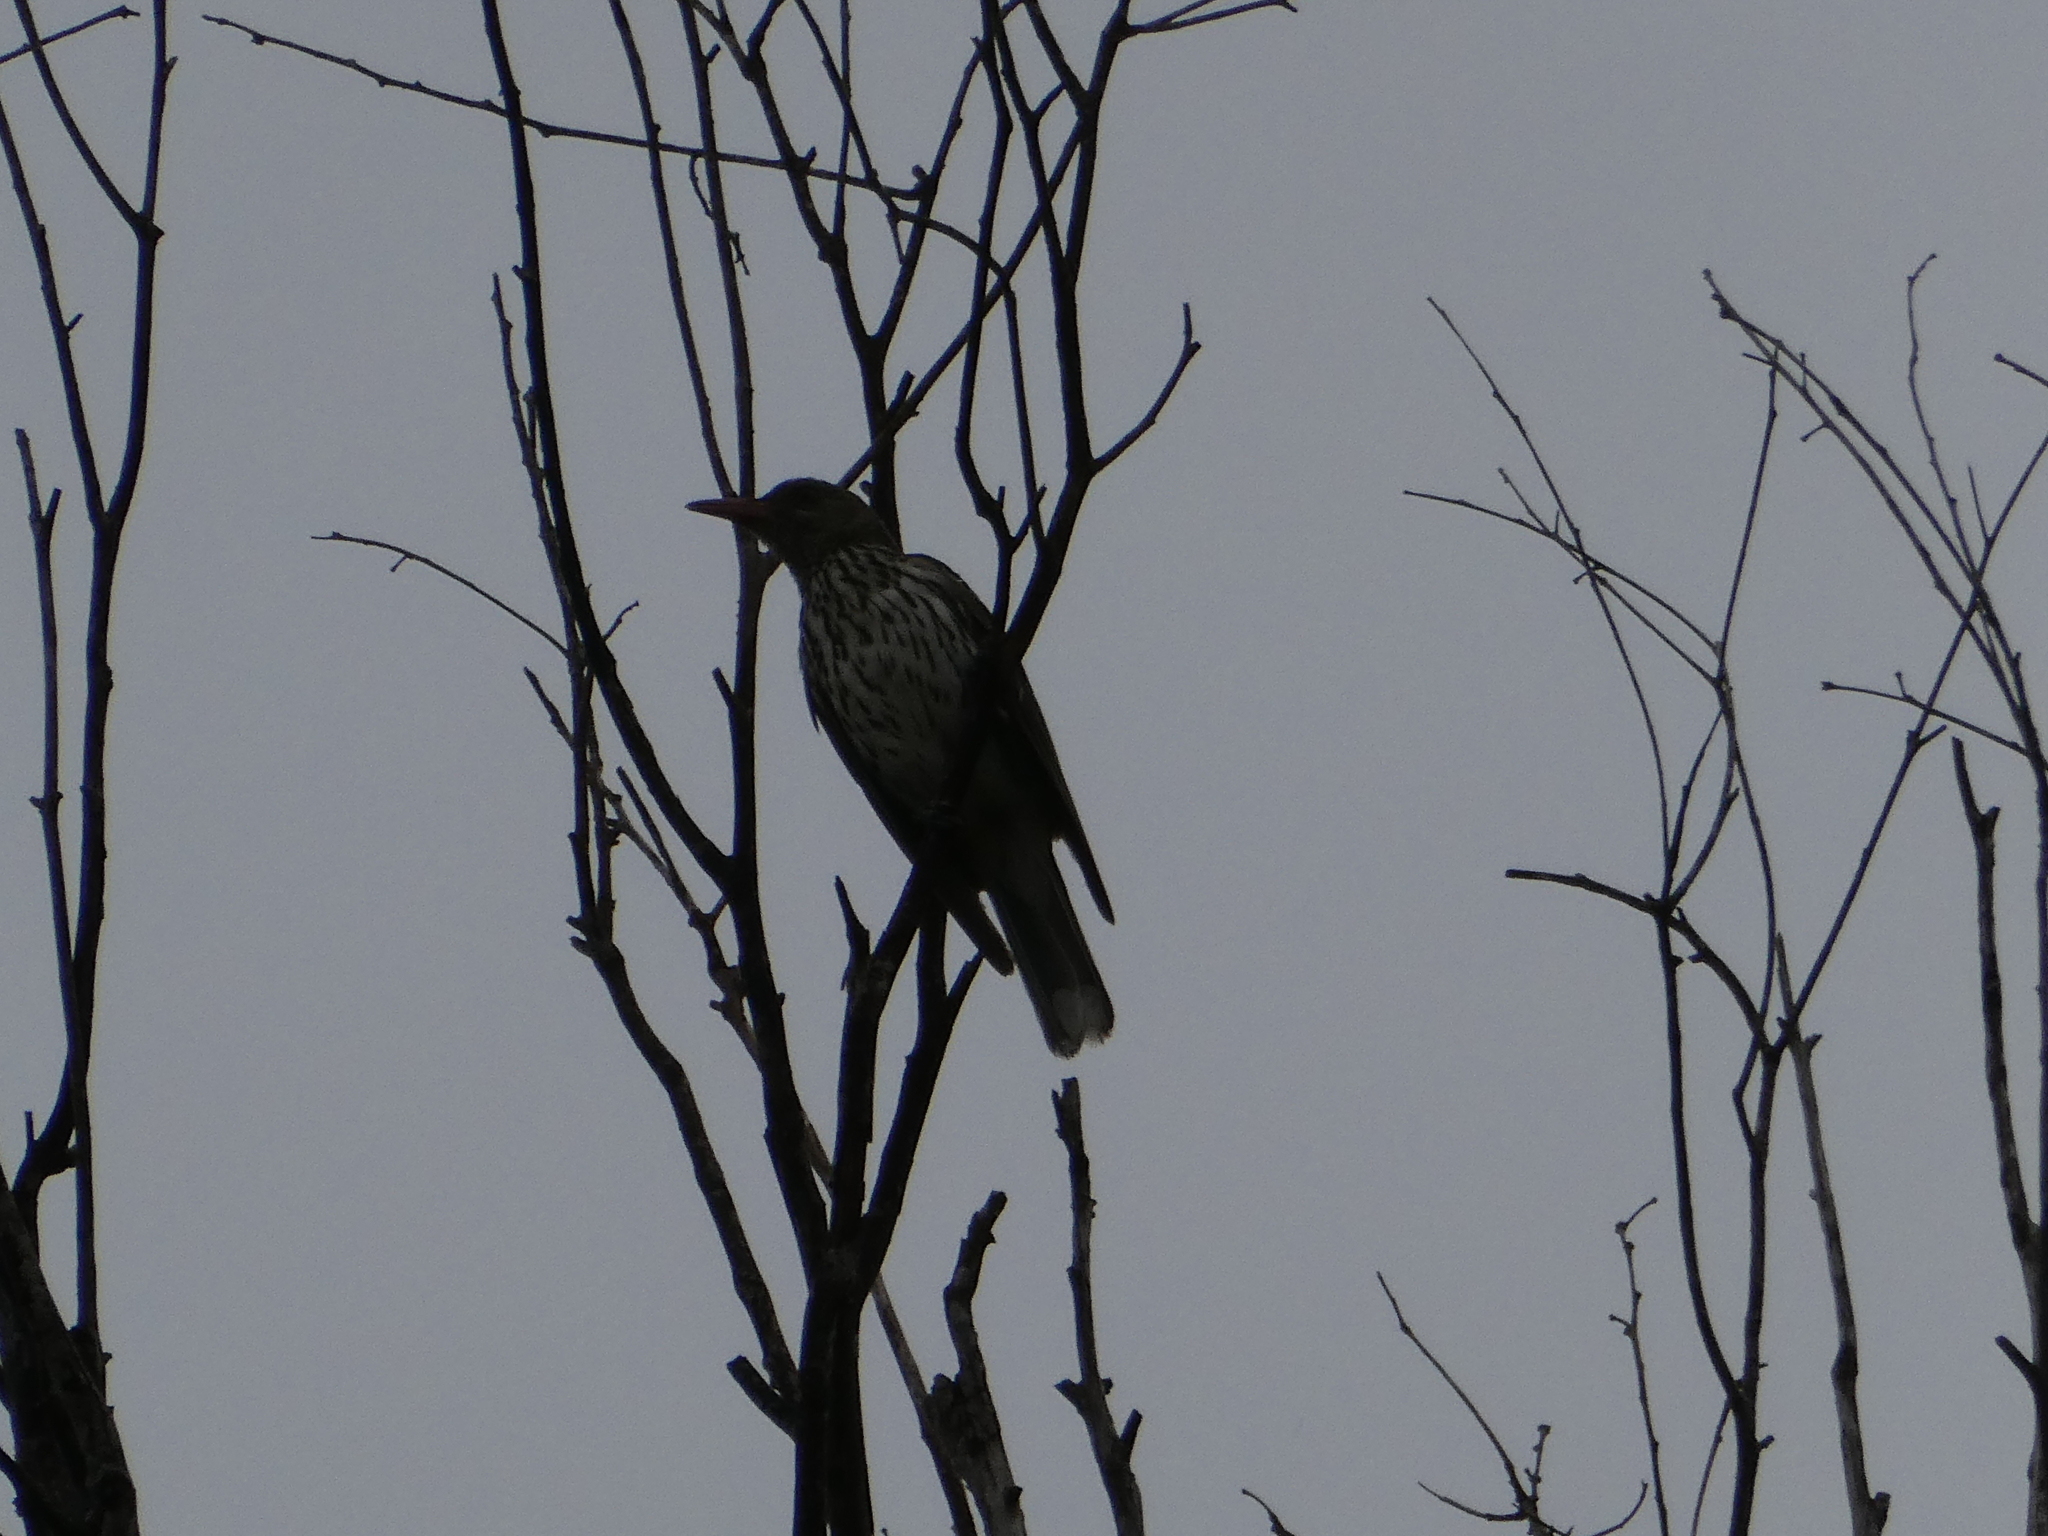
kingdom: Animalia
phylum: Chordata
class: Aves
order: Passeriformes
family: Oriolidae
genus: Oriolus
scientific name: Oriolus sagittatus
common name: Olive-backed oriole
